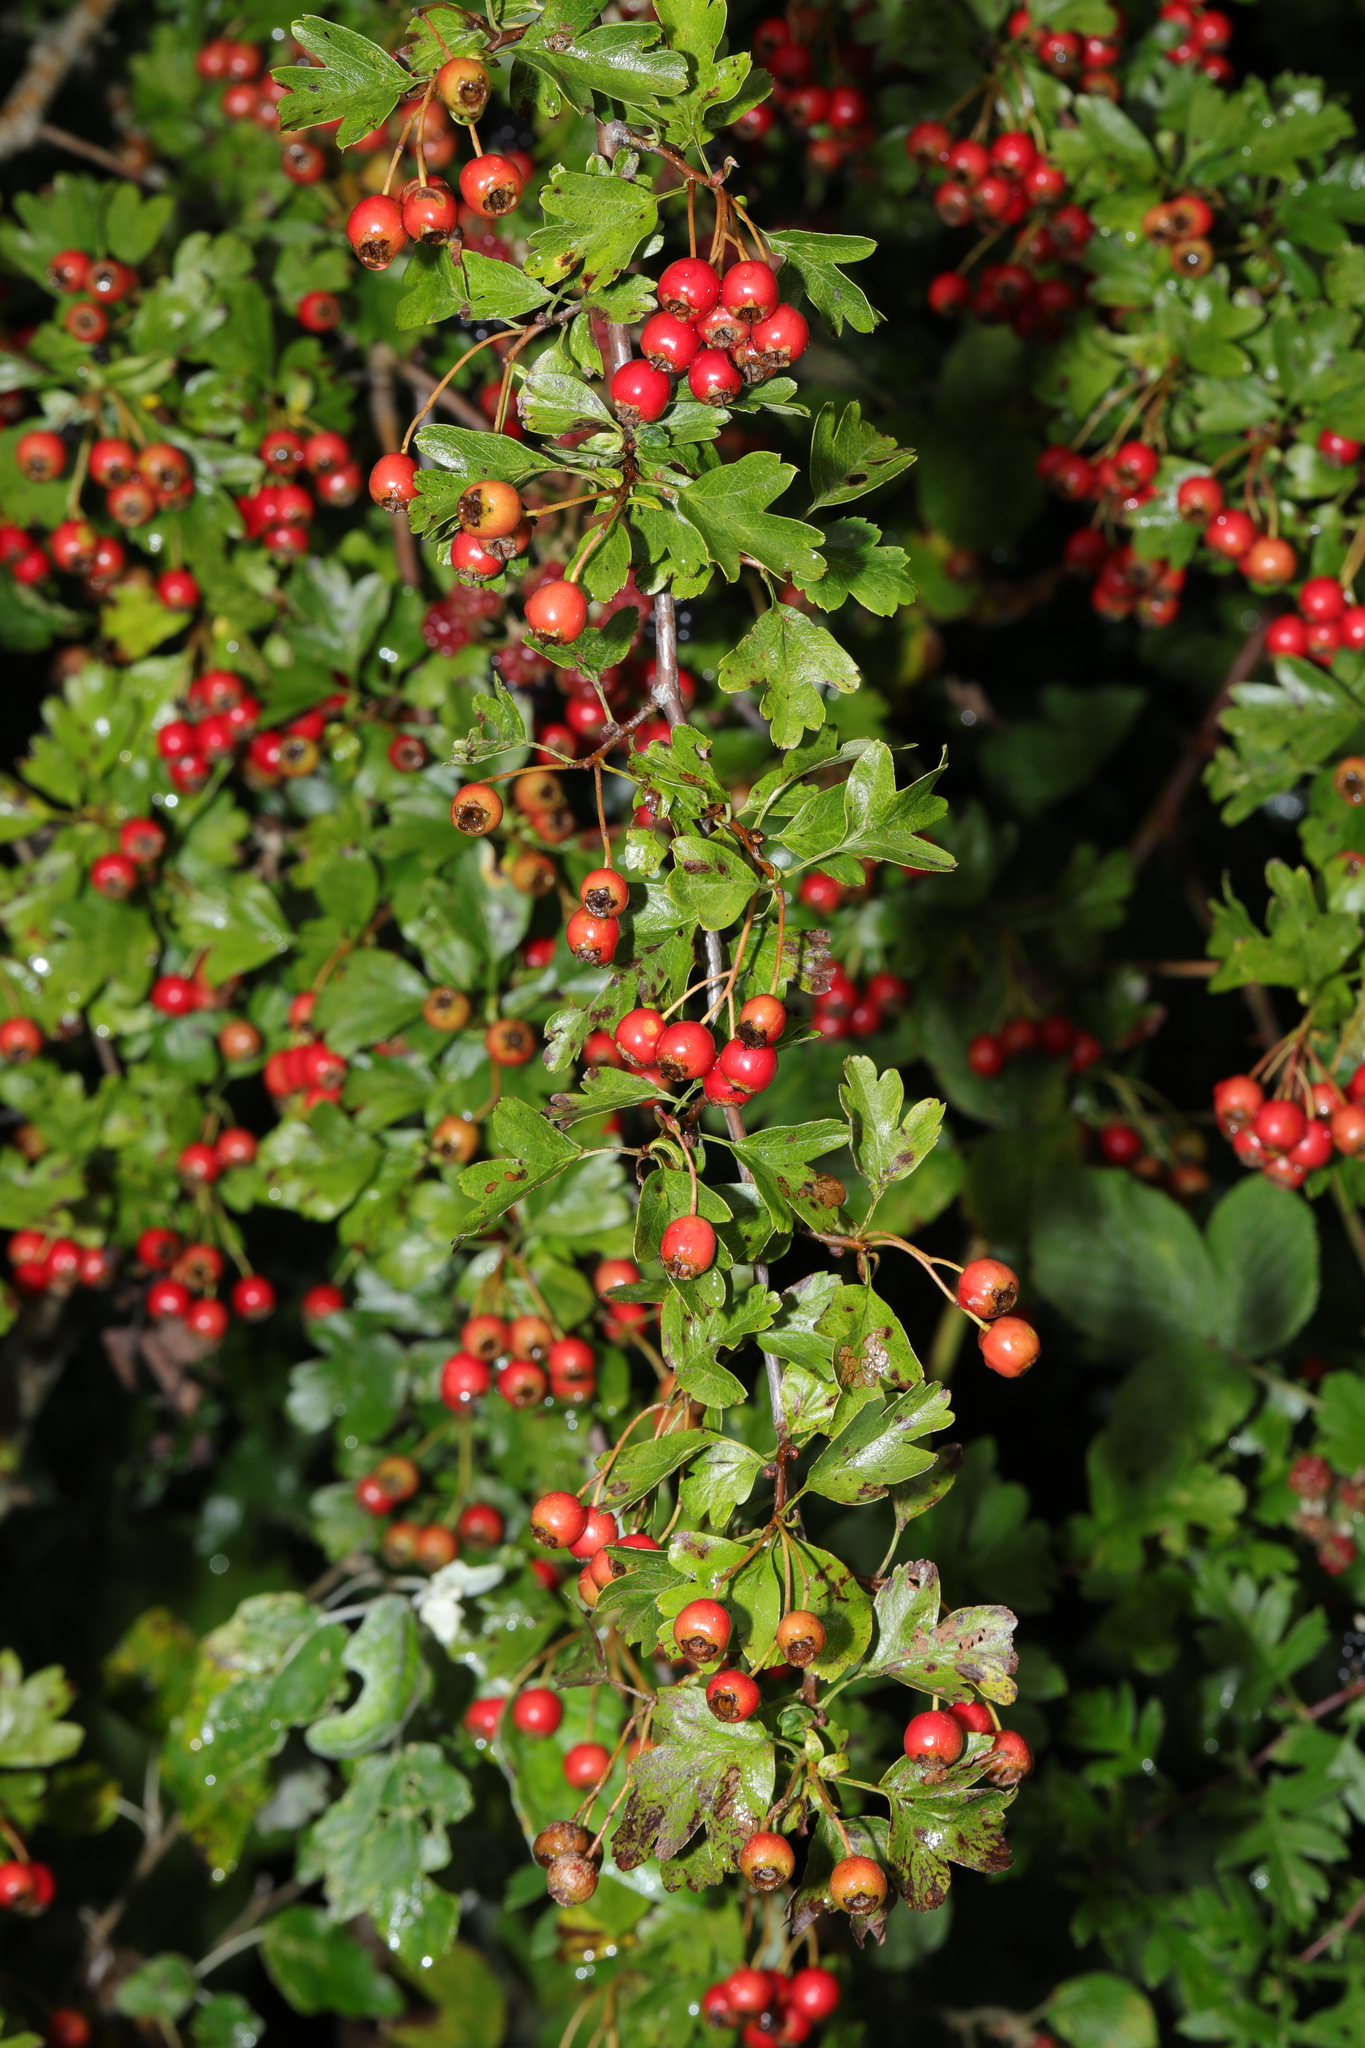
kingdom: Plantae
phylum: Tracheophyta
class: Magnoliopsida
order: Rosales
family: Rosaceae
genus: Crataegus
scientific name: Crataegus monogyna
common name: Hawthorn
